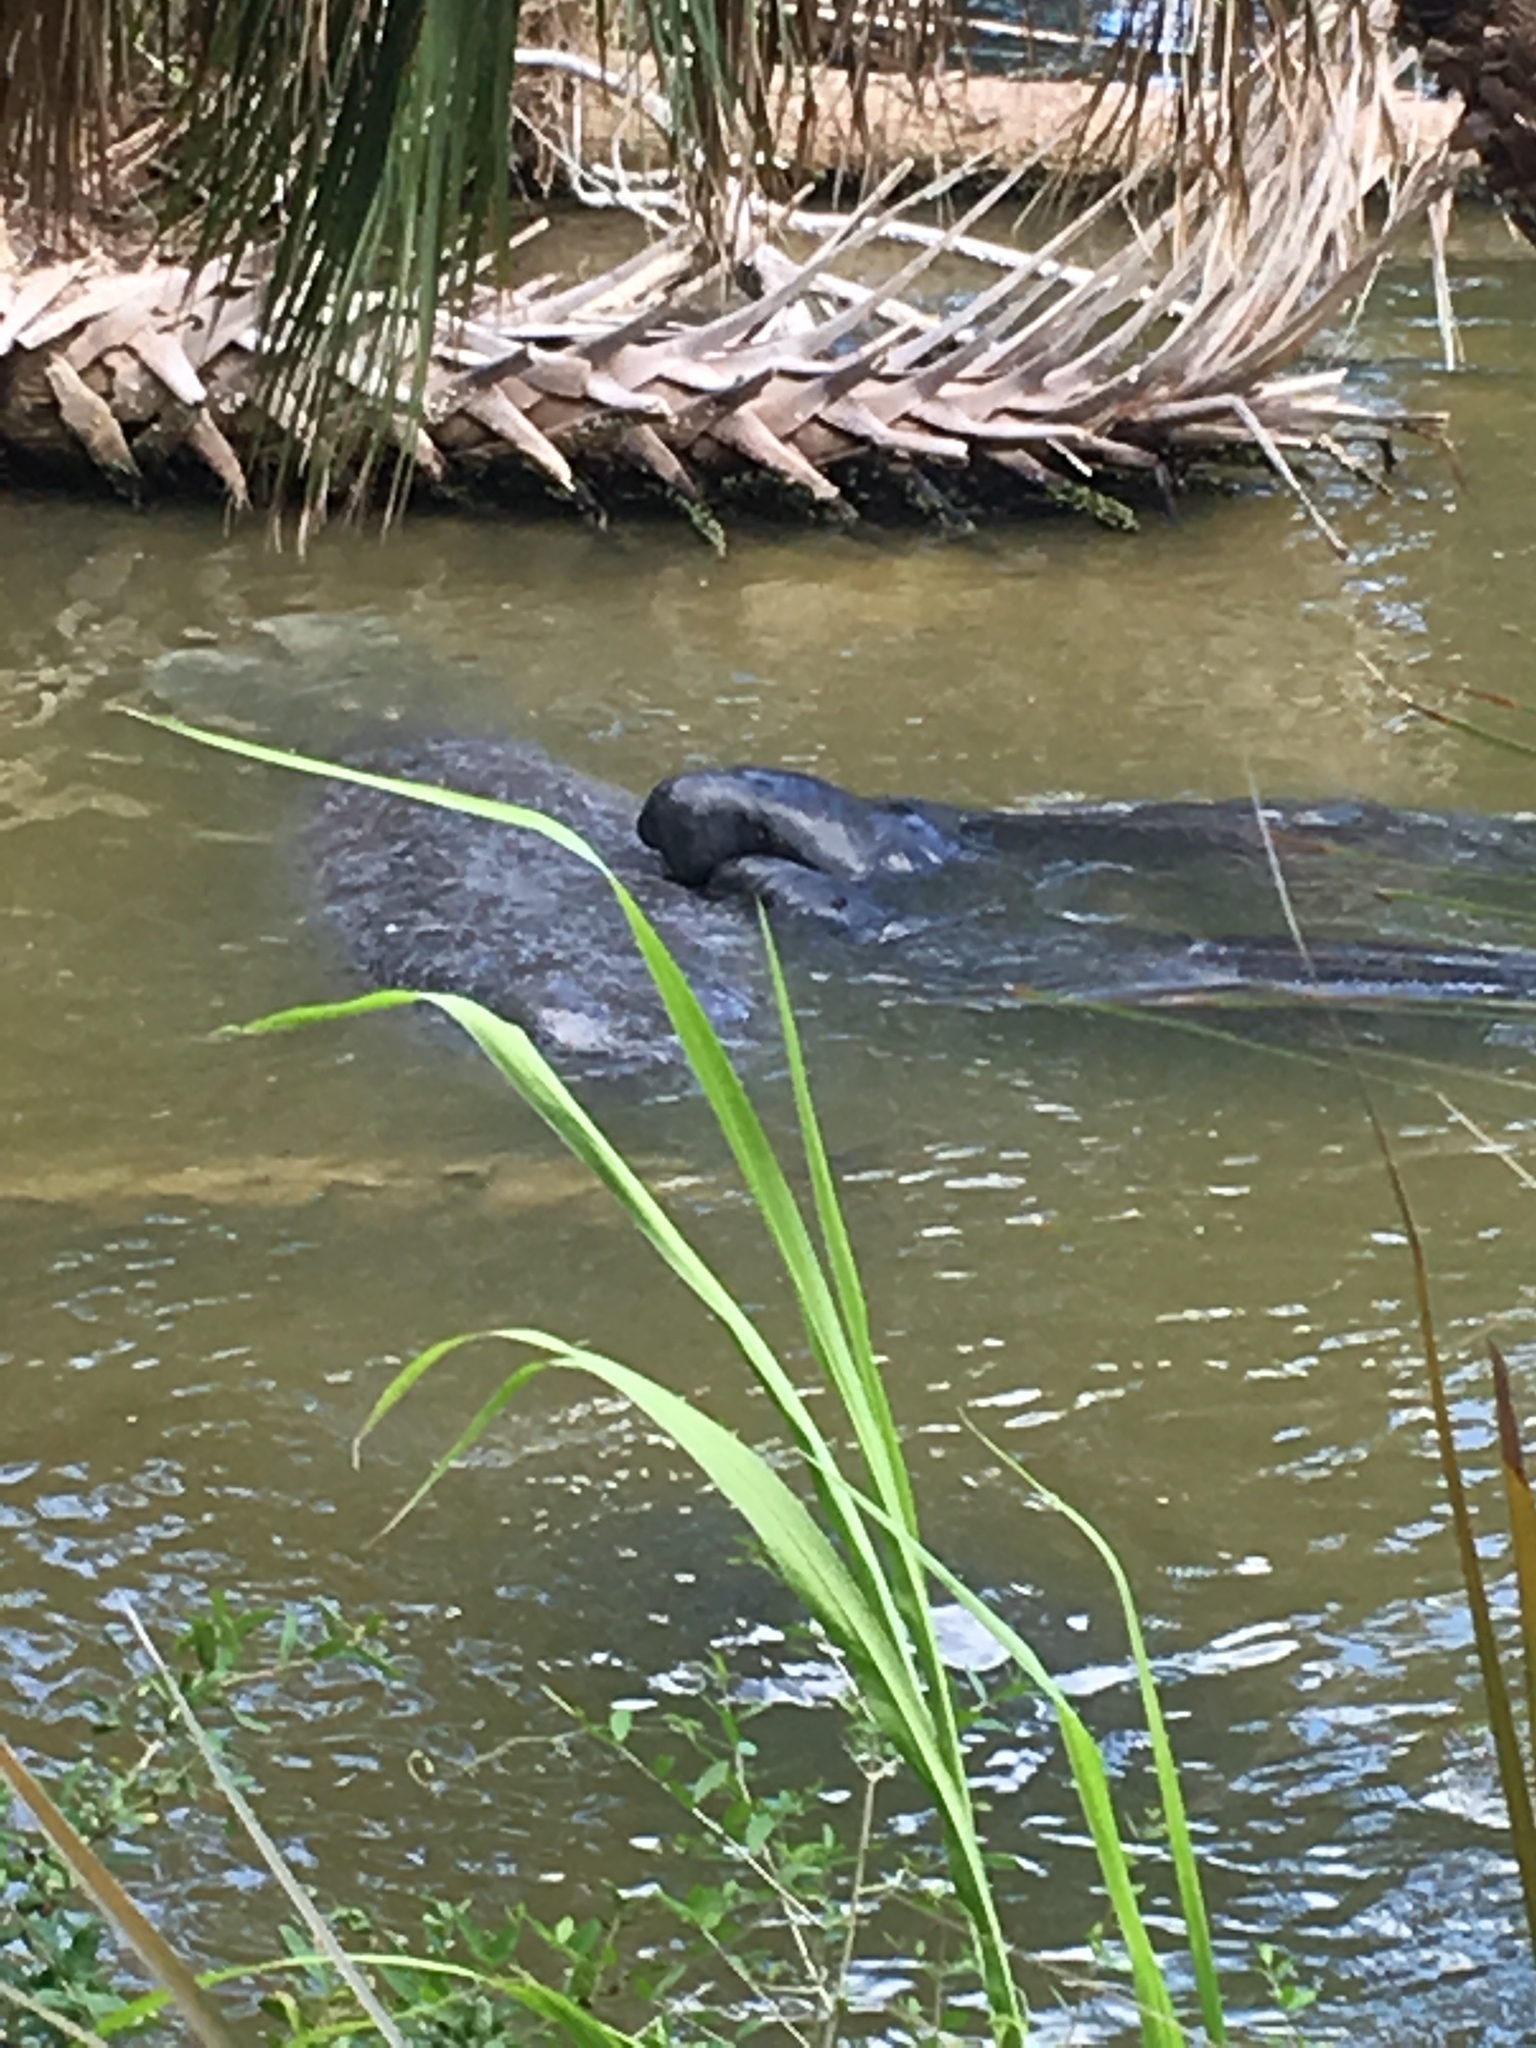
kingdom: Animalia
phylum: Chordata
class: Mammalia
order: Sirenia
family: Trichechidae
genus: Trichechus
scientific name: Trichechus manatus
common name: West indian manatee
